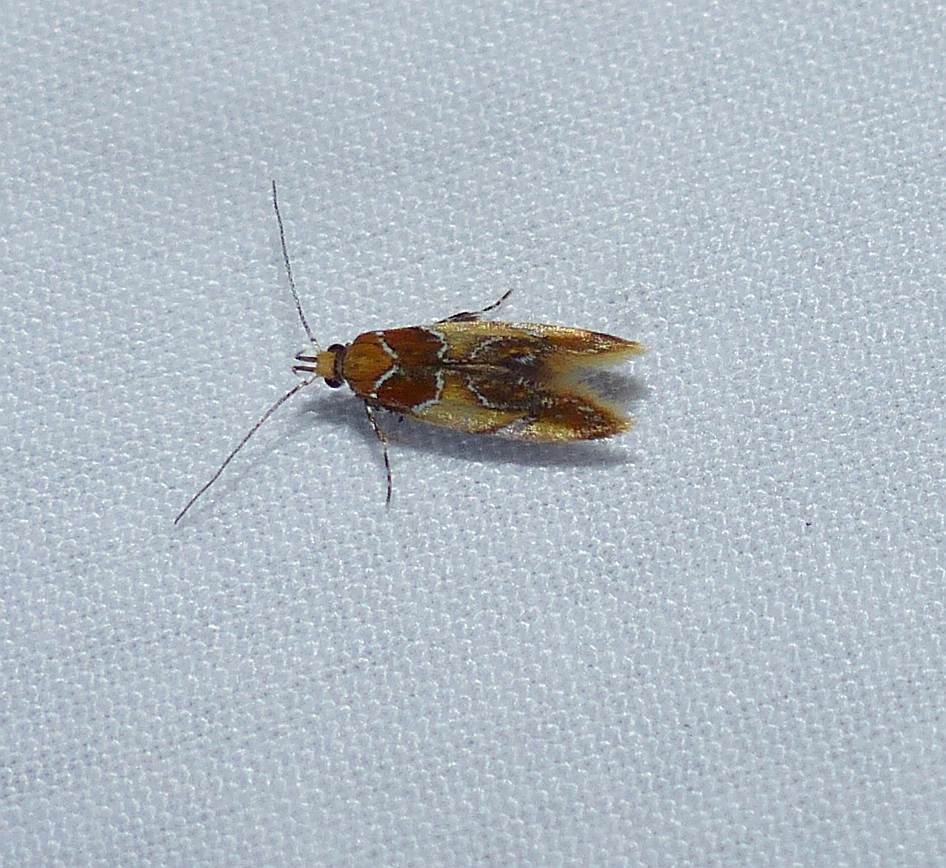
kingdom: Animalia
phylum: Arthropoda
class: Insecta
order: Lepidoptera
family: Oecophoridae
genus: Callima
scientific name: Callima argenticinctella
